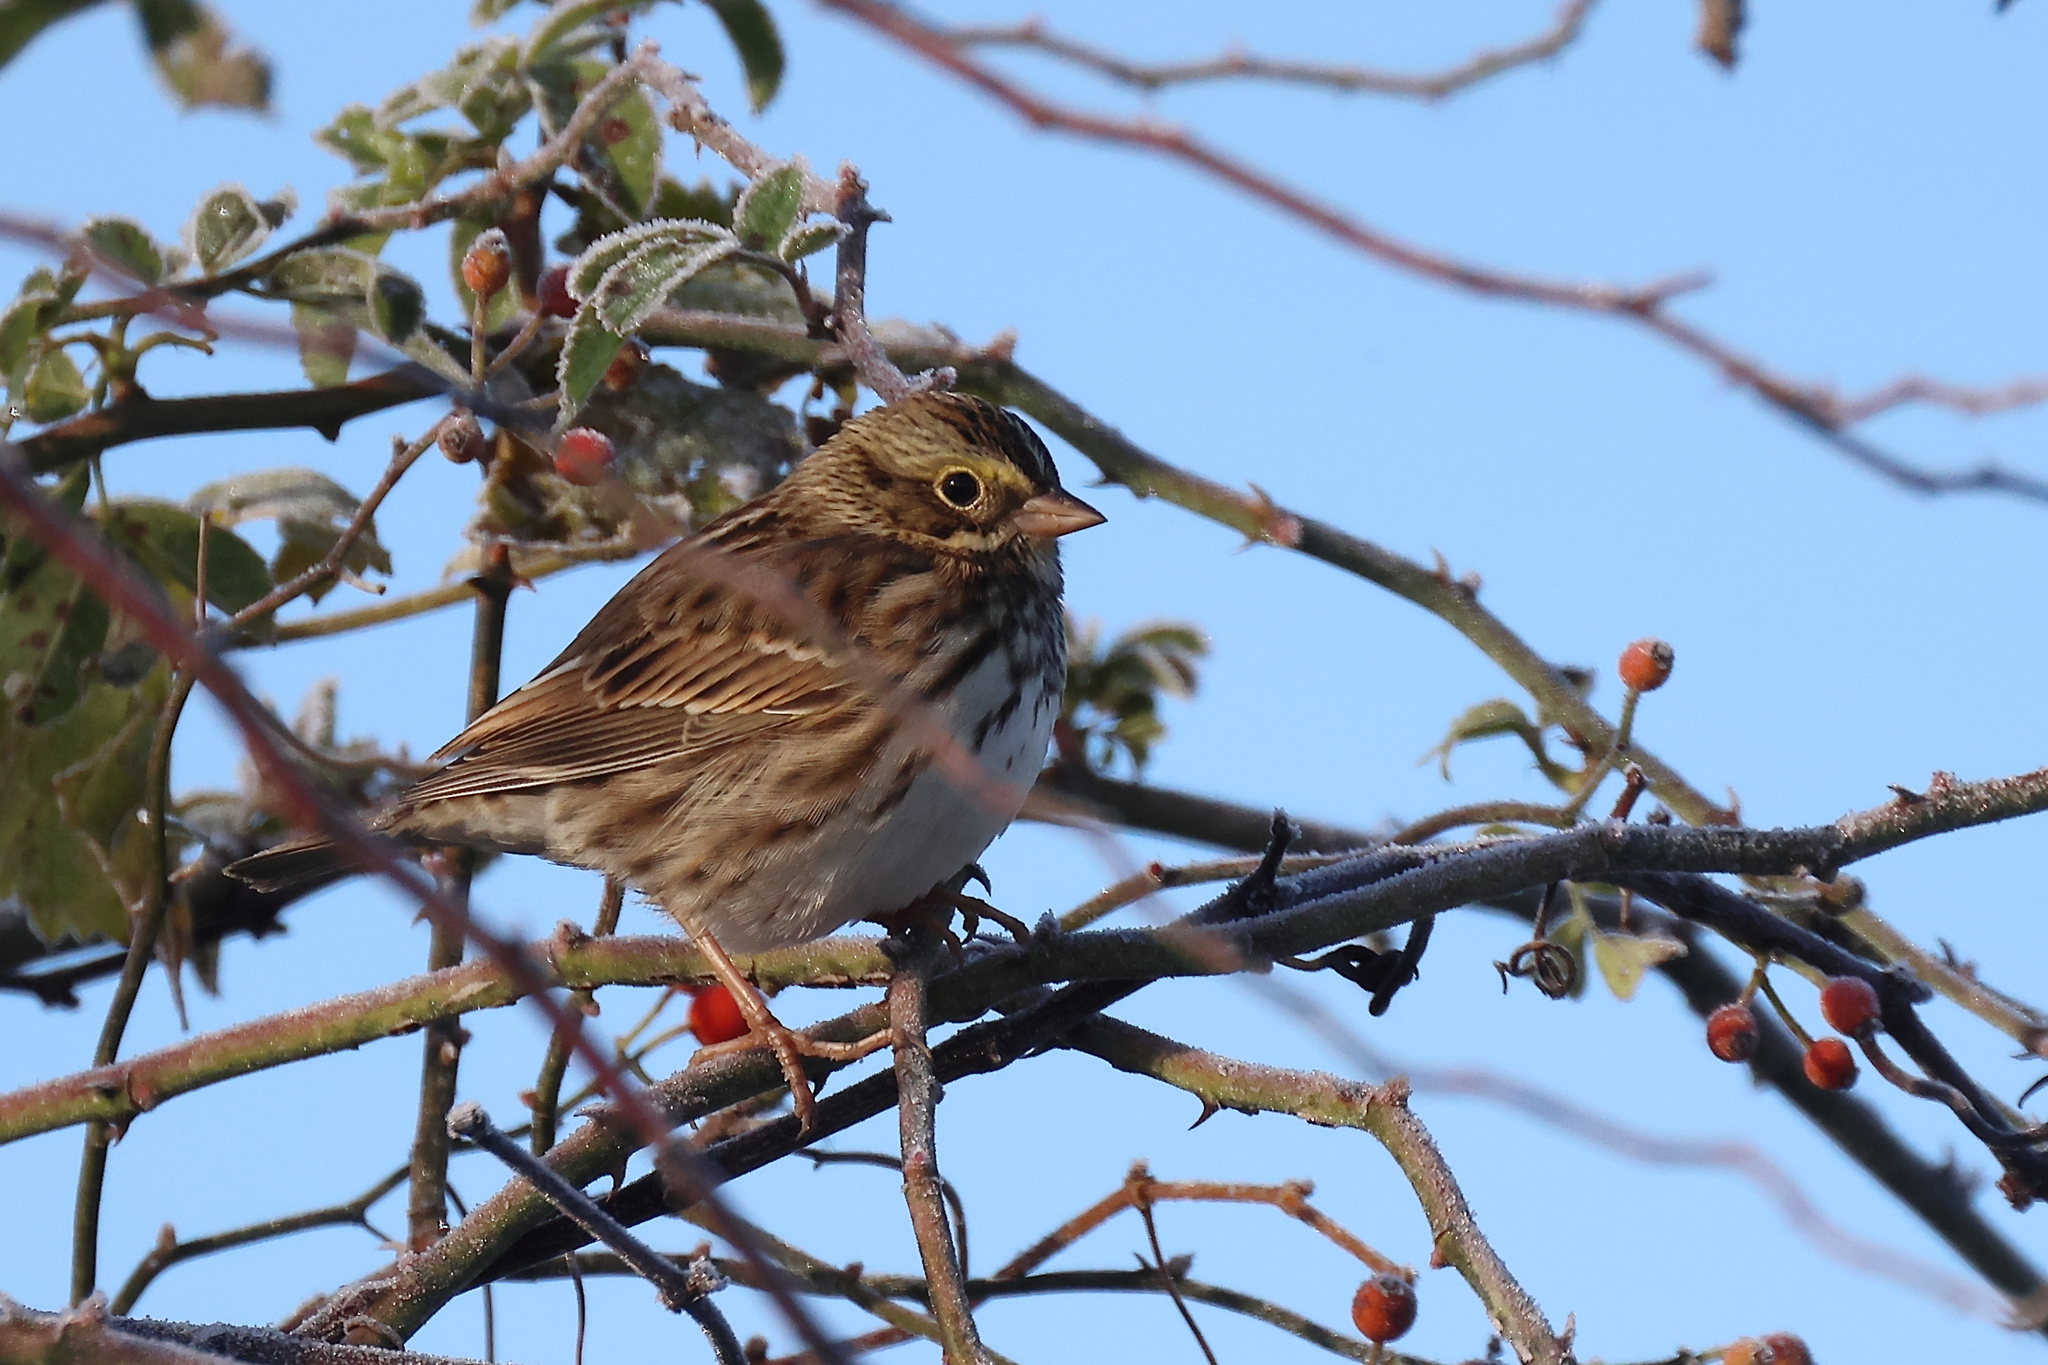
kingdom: Animalia
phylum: Chordata
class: Aves
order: Passeriformes
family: Passerellidae
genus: Passerculus
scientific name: Passerculus sandwichensis
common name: Savannah sparrow
